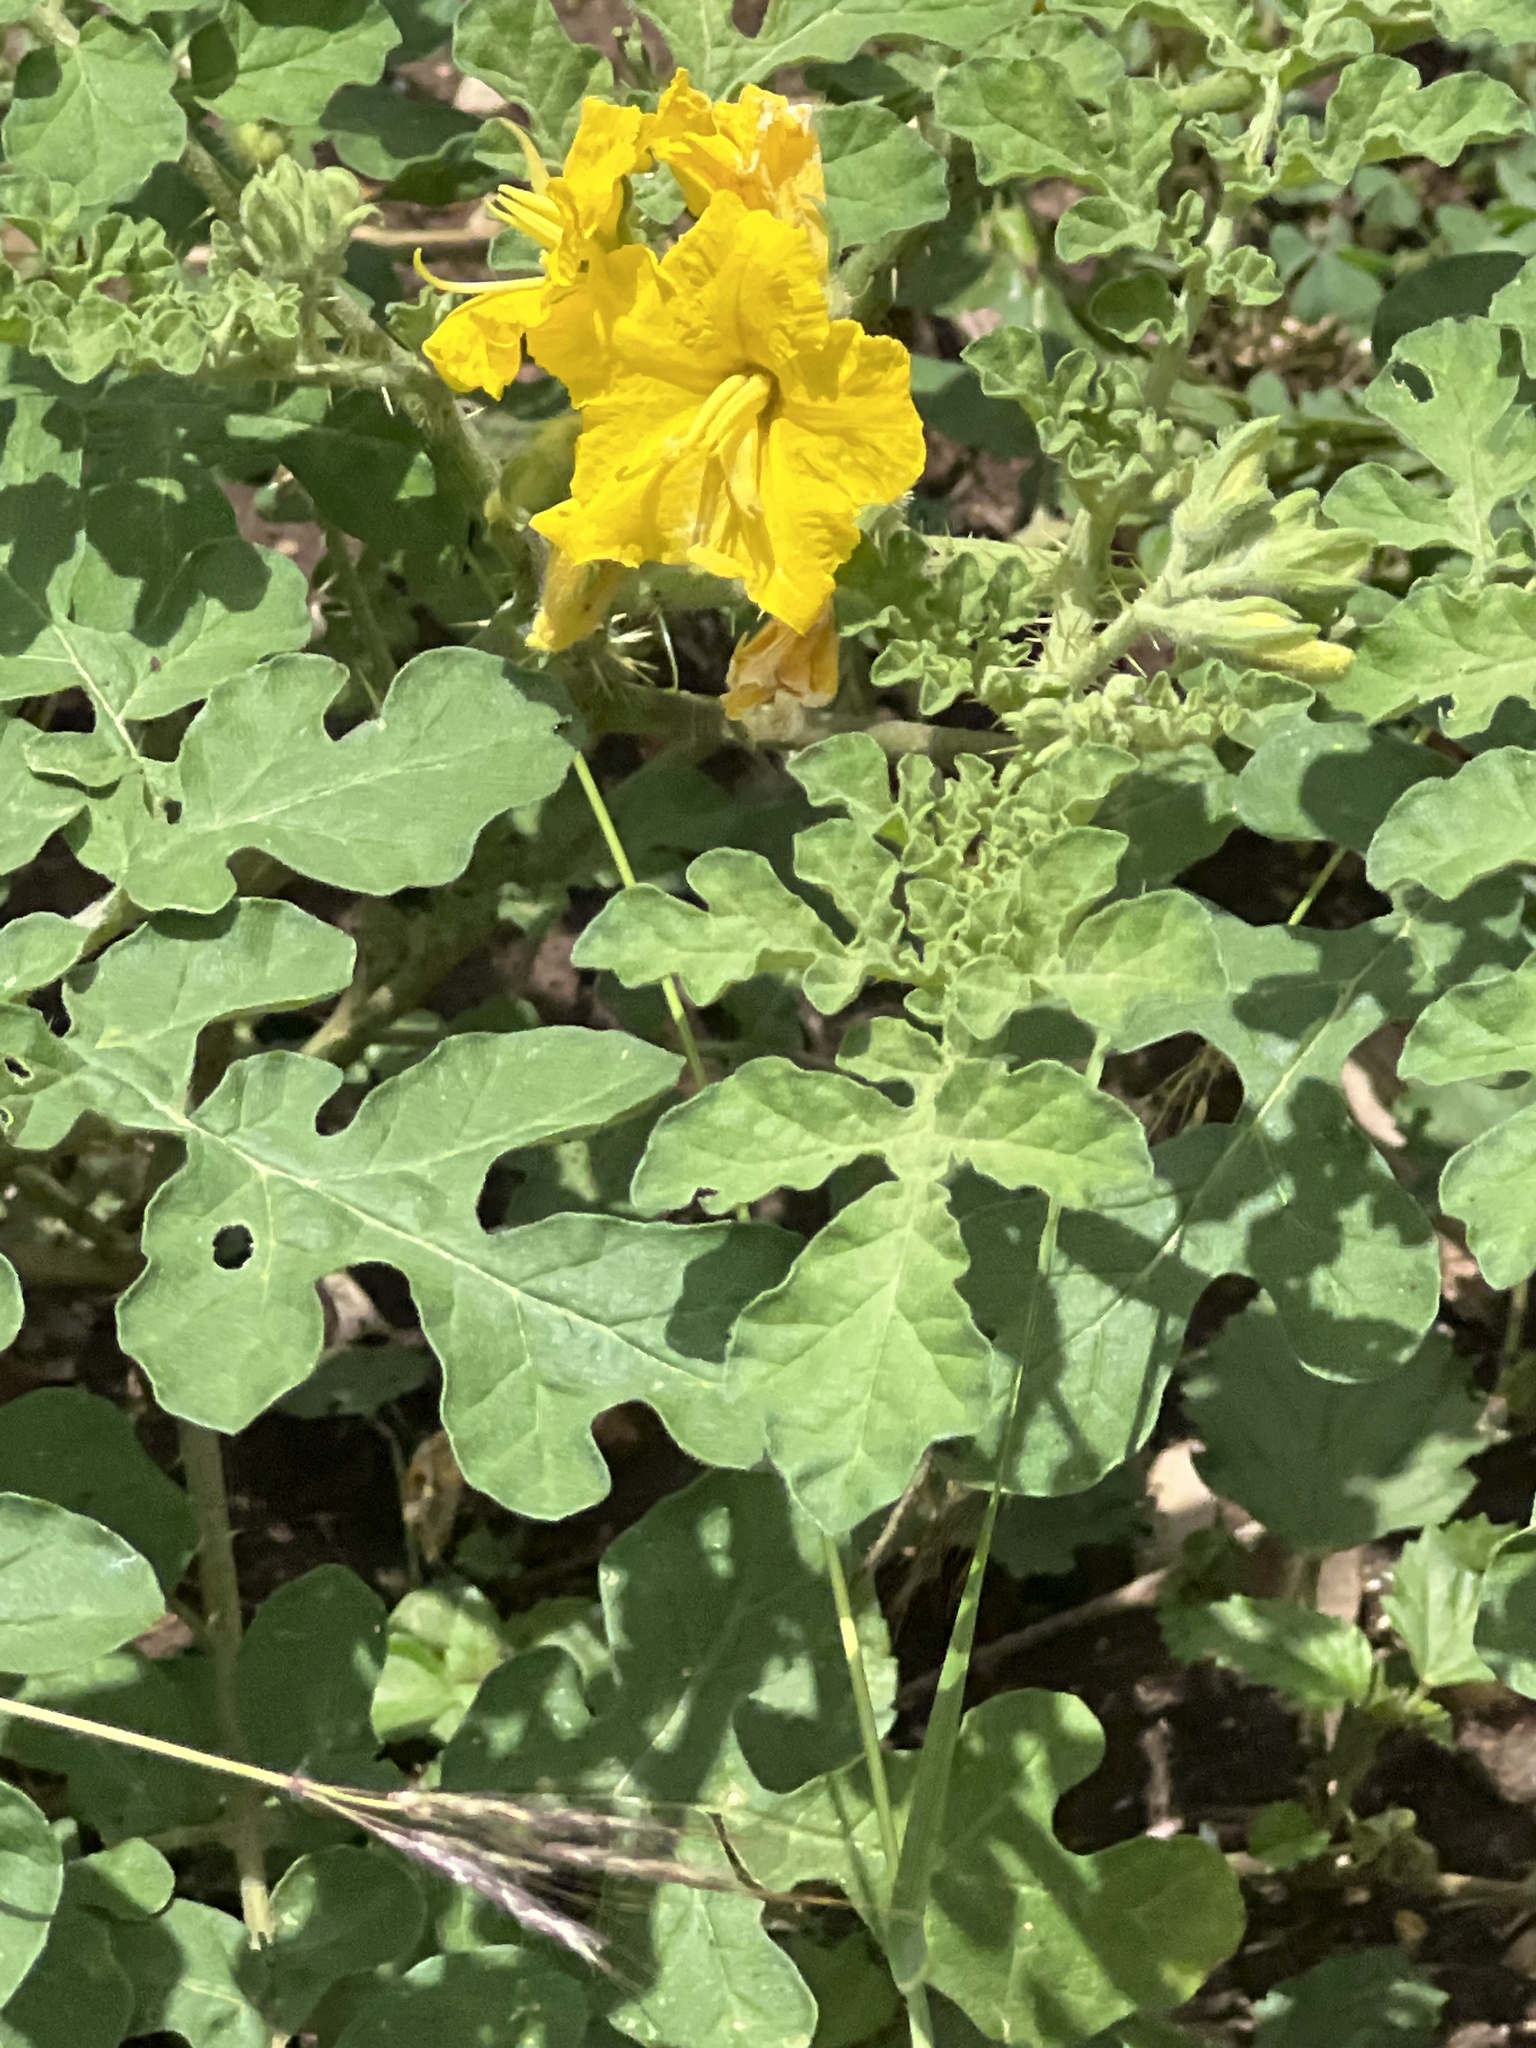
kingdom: Plantae
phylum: Tracheophyta
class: Magnoliopsida
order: Solanales
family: Solanaceae
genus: Solanum
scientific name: Solanum angustifolium
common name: Buffalobur nightshade
